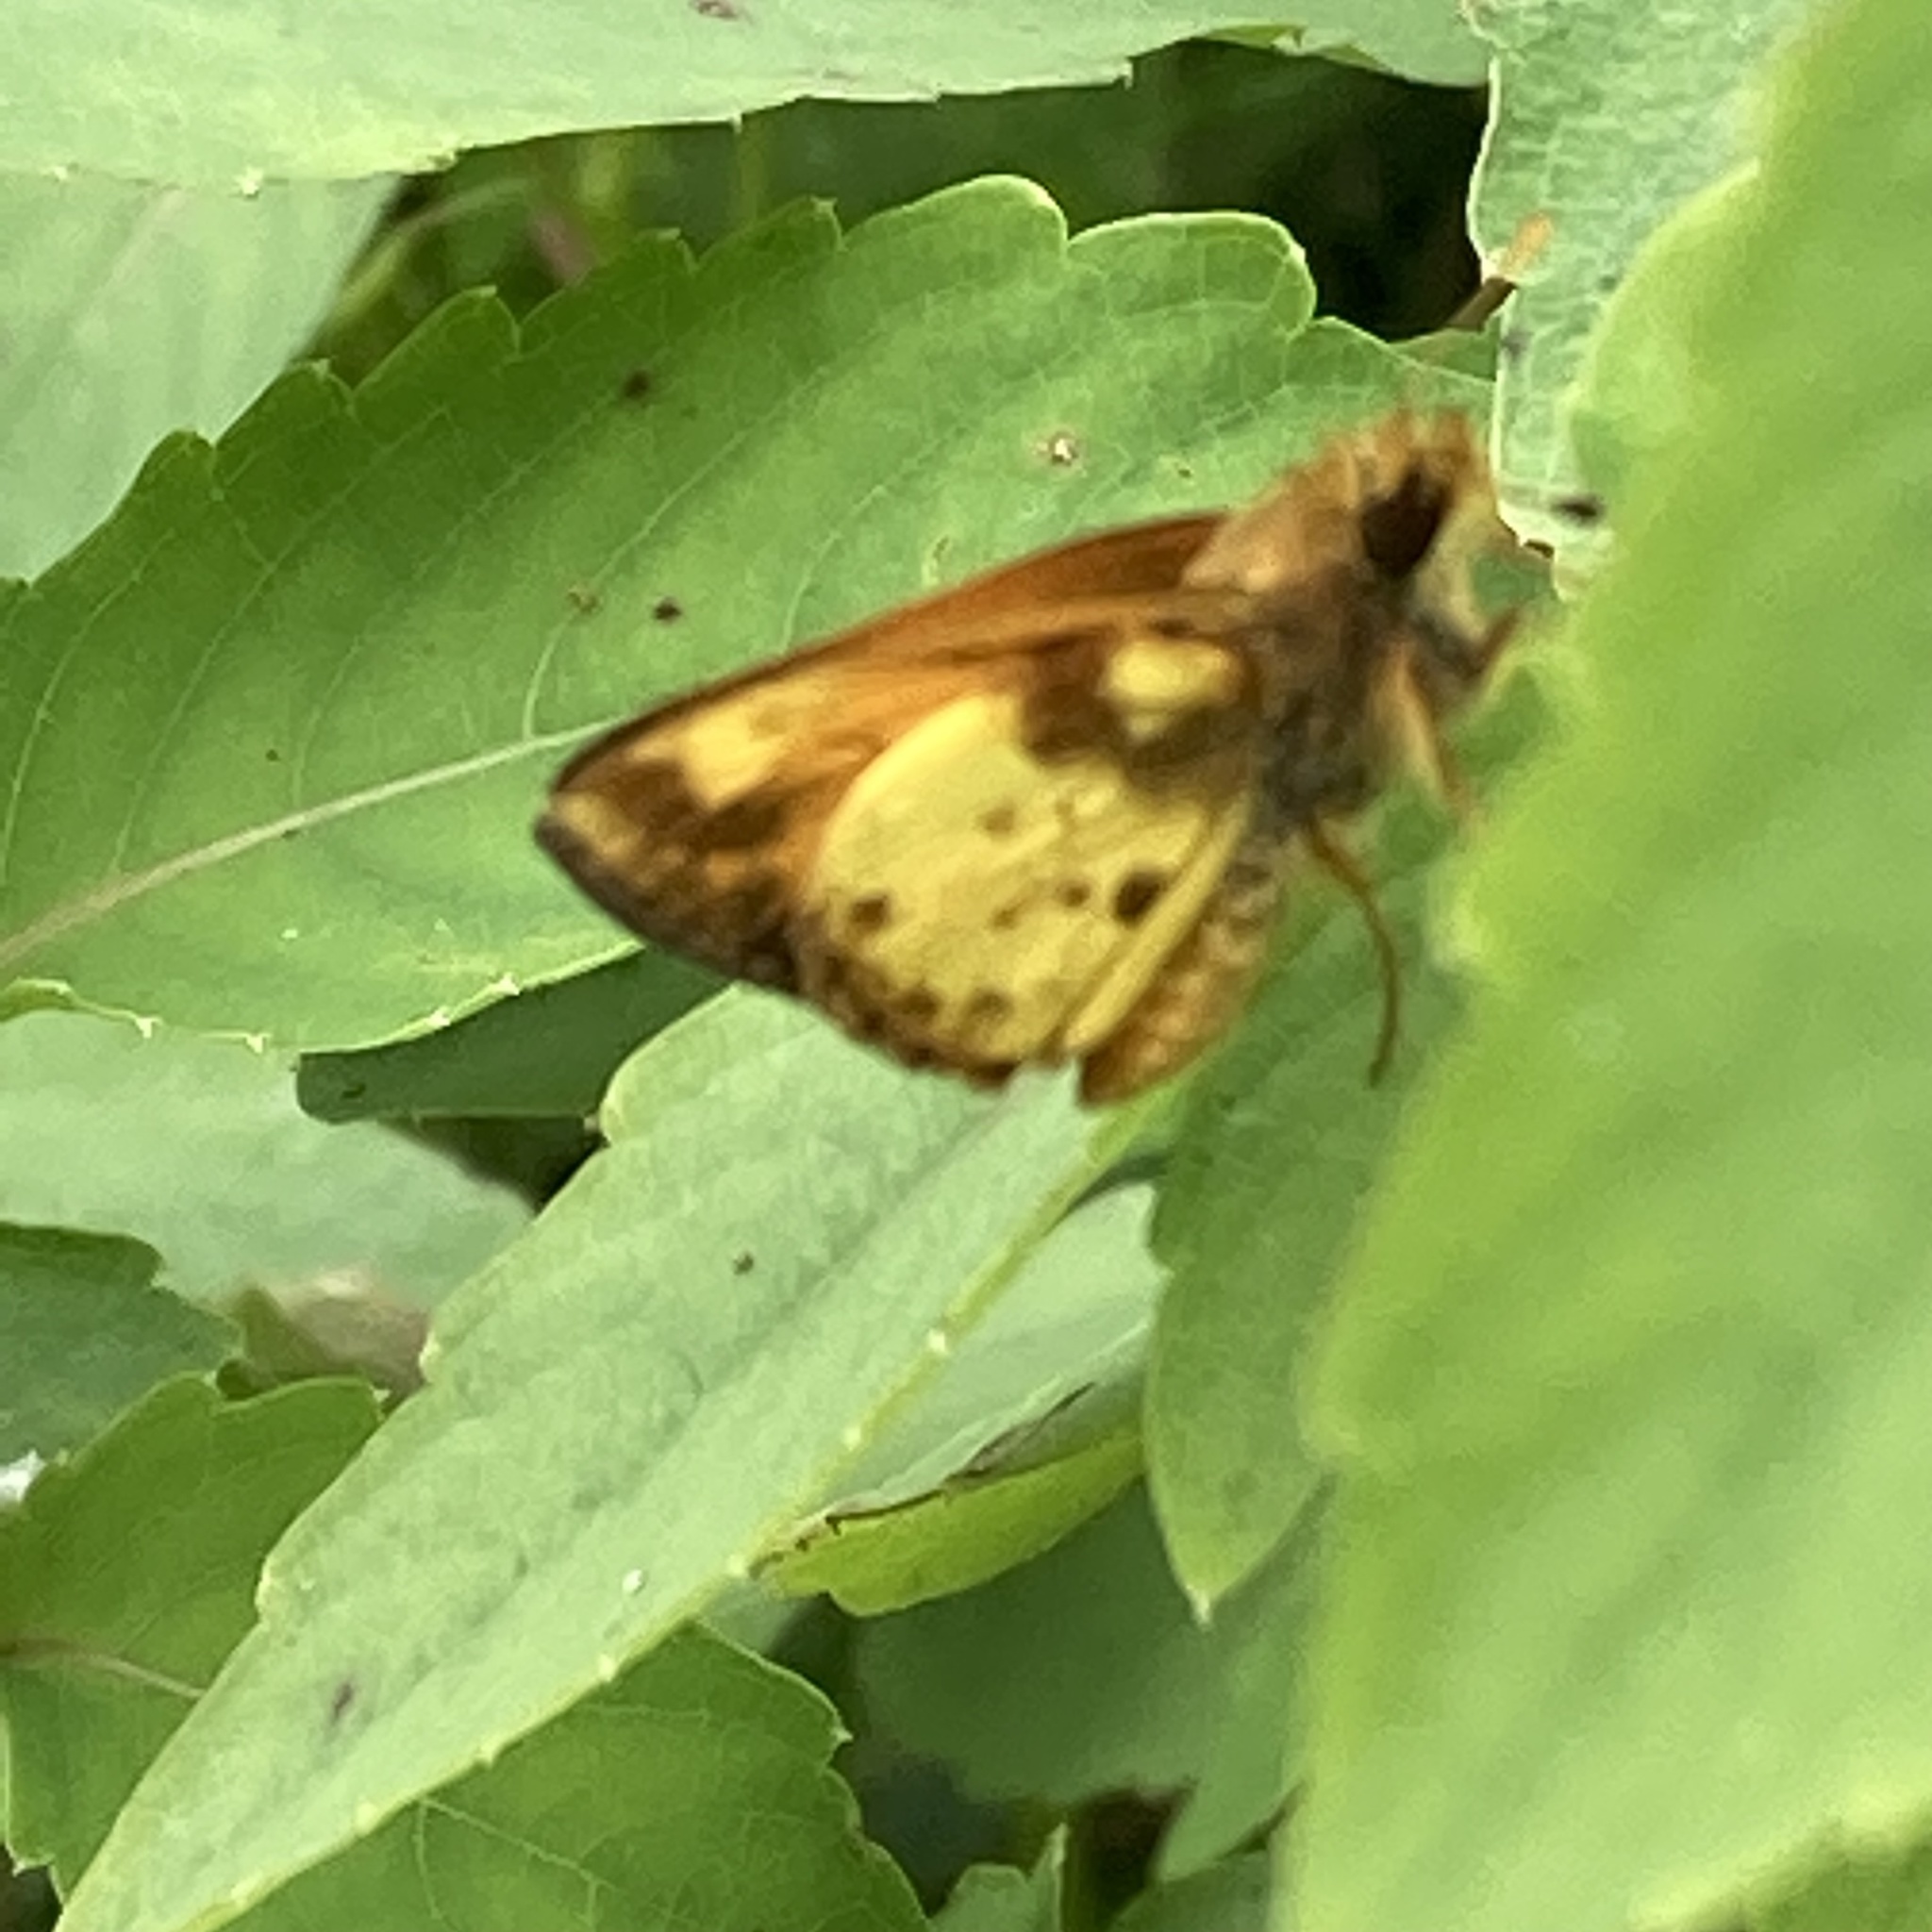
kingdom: Animalia
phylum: Arthropoda
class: Insecta
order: Lepidoptera
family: Hesperiidae
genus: Lon
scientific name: Lon zabulon
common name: Zabulon skipper
